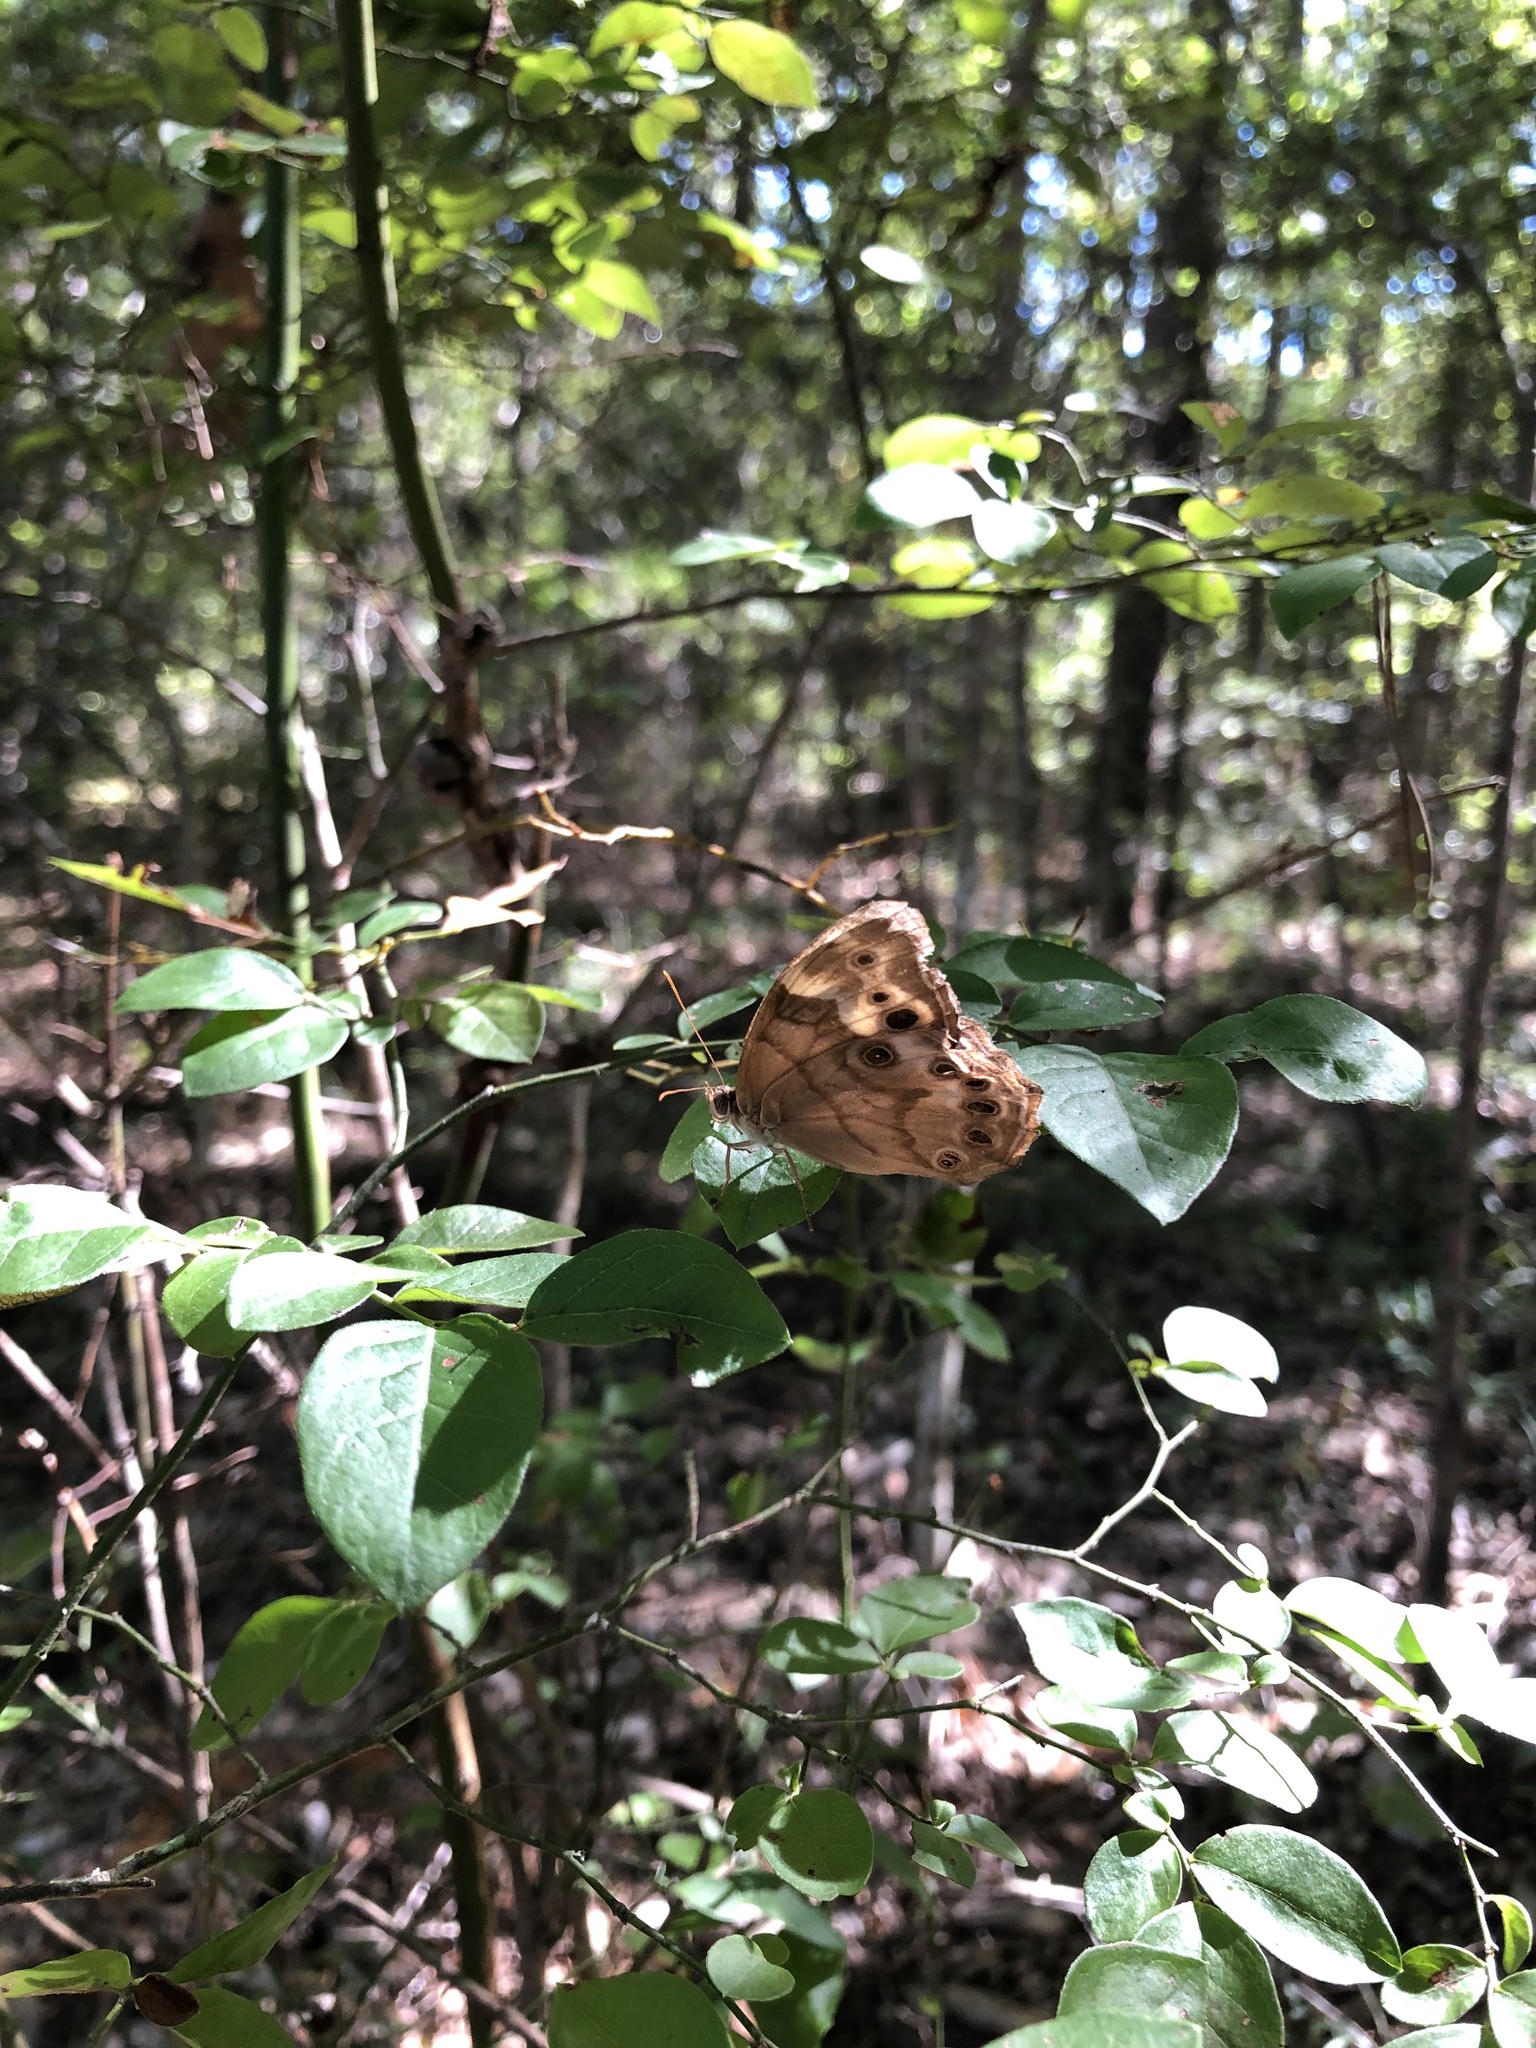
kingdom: Animalia
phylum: Arthropoda
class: Insecta
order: Lepidoptera
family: Nymphalidae
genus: Enodia
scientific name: Enodia portlandia
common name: Southern pearly-eye
